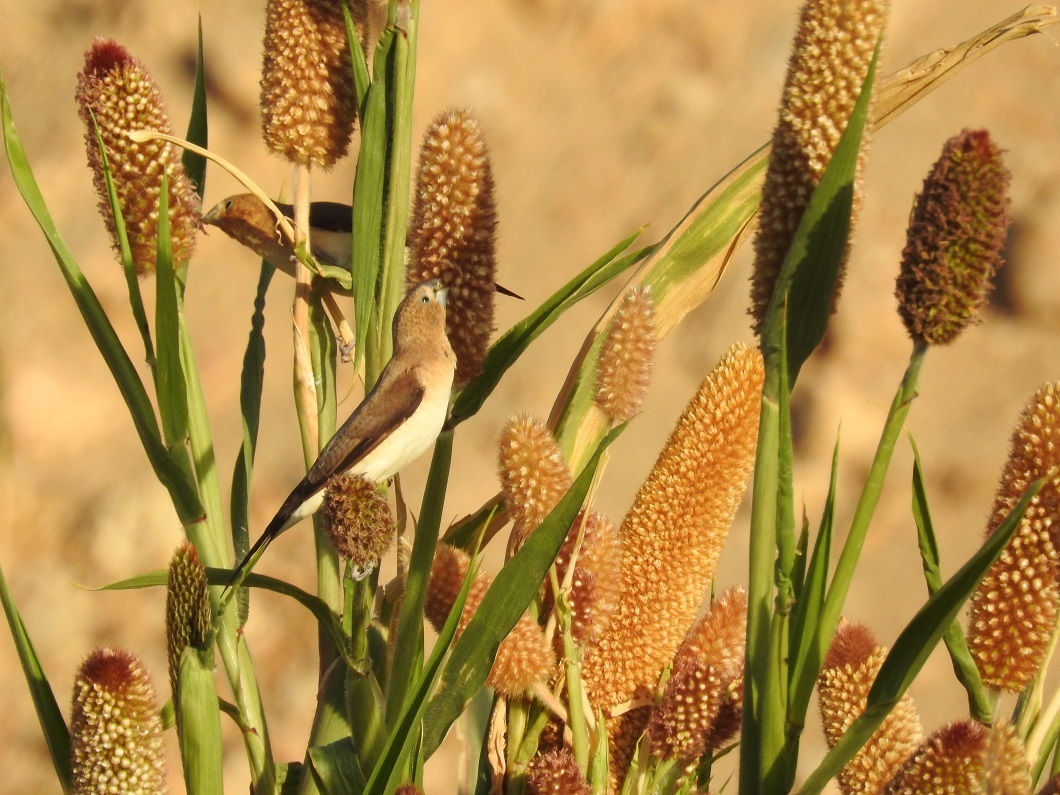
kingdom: Animalia
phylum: Chordata
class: Aves
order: Passeriformes
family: Estrildidae
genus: Euodice
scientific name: Euodice cantans
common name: African silverbill
